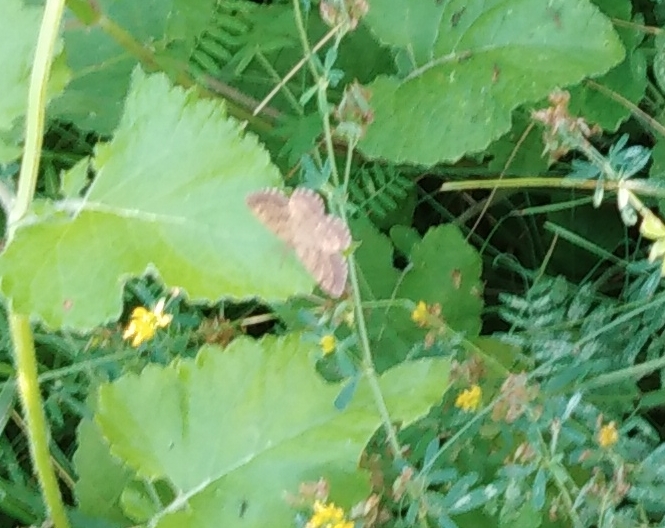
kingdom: Animalia
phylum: Arthropoda
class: Insecta
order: Lepidoptera
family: Geometridae
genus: Ematurga
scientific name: Ematurga atomaria
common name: Common heath
